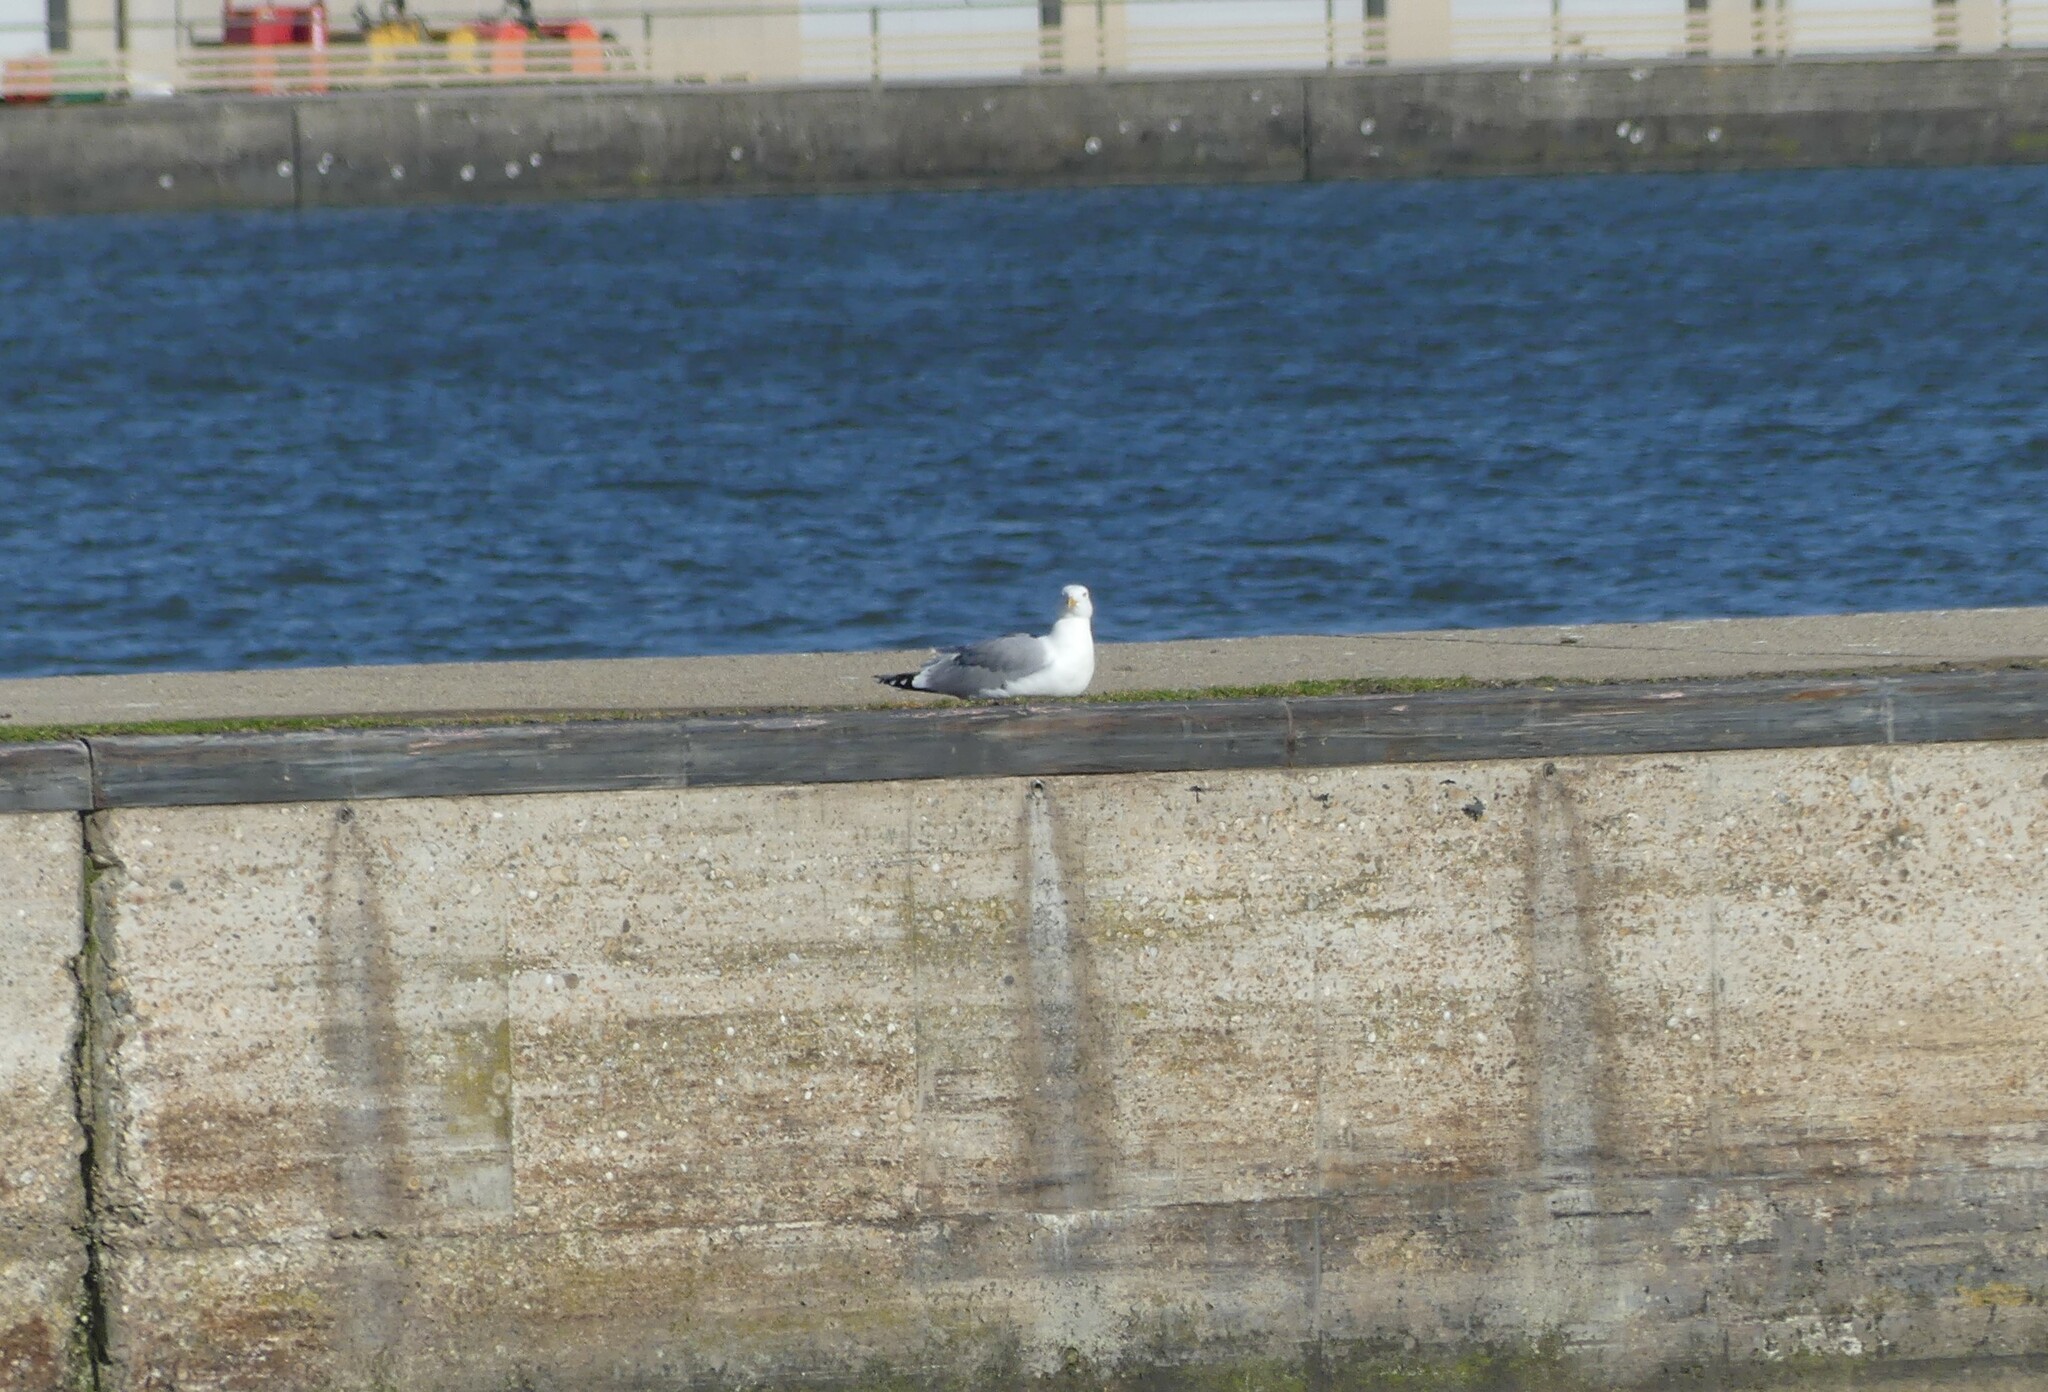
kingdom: Animalia
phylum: Chordata
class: Aves
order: Charadriiformes
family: Laridae
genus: Larus
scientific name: Larus michahellis
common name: Yellow-legged gull
